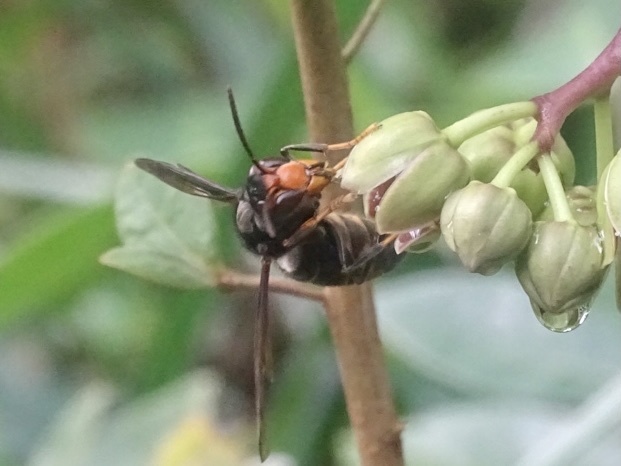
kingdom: Animalia
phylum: Arthropoda
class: Insecta
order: Hymenoptera
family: Vespidae
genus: Vespa
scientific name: Vespa velutina
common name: Asian hornet
